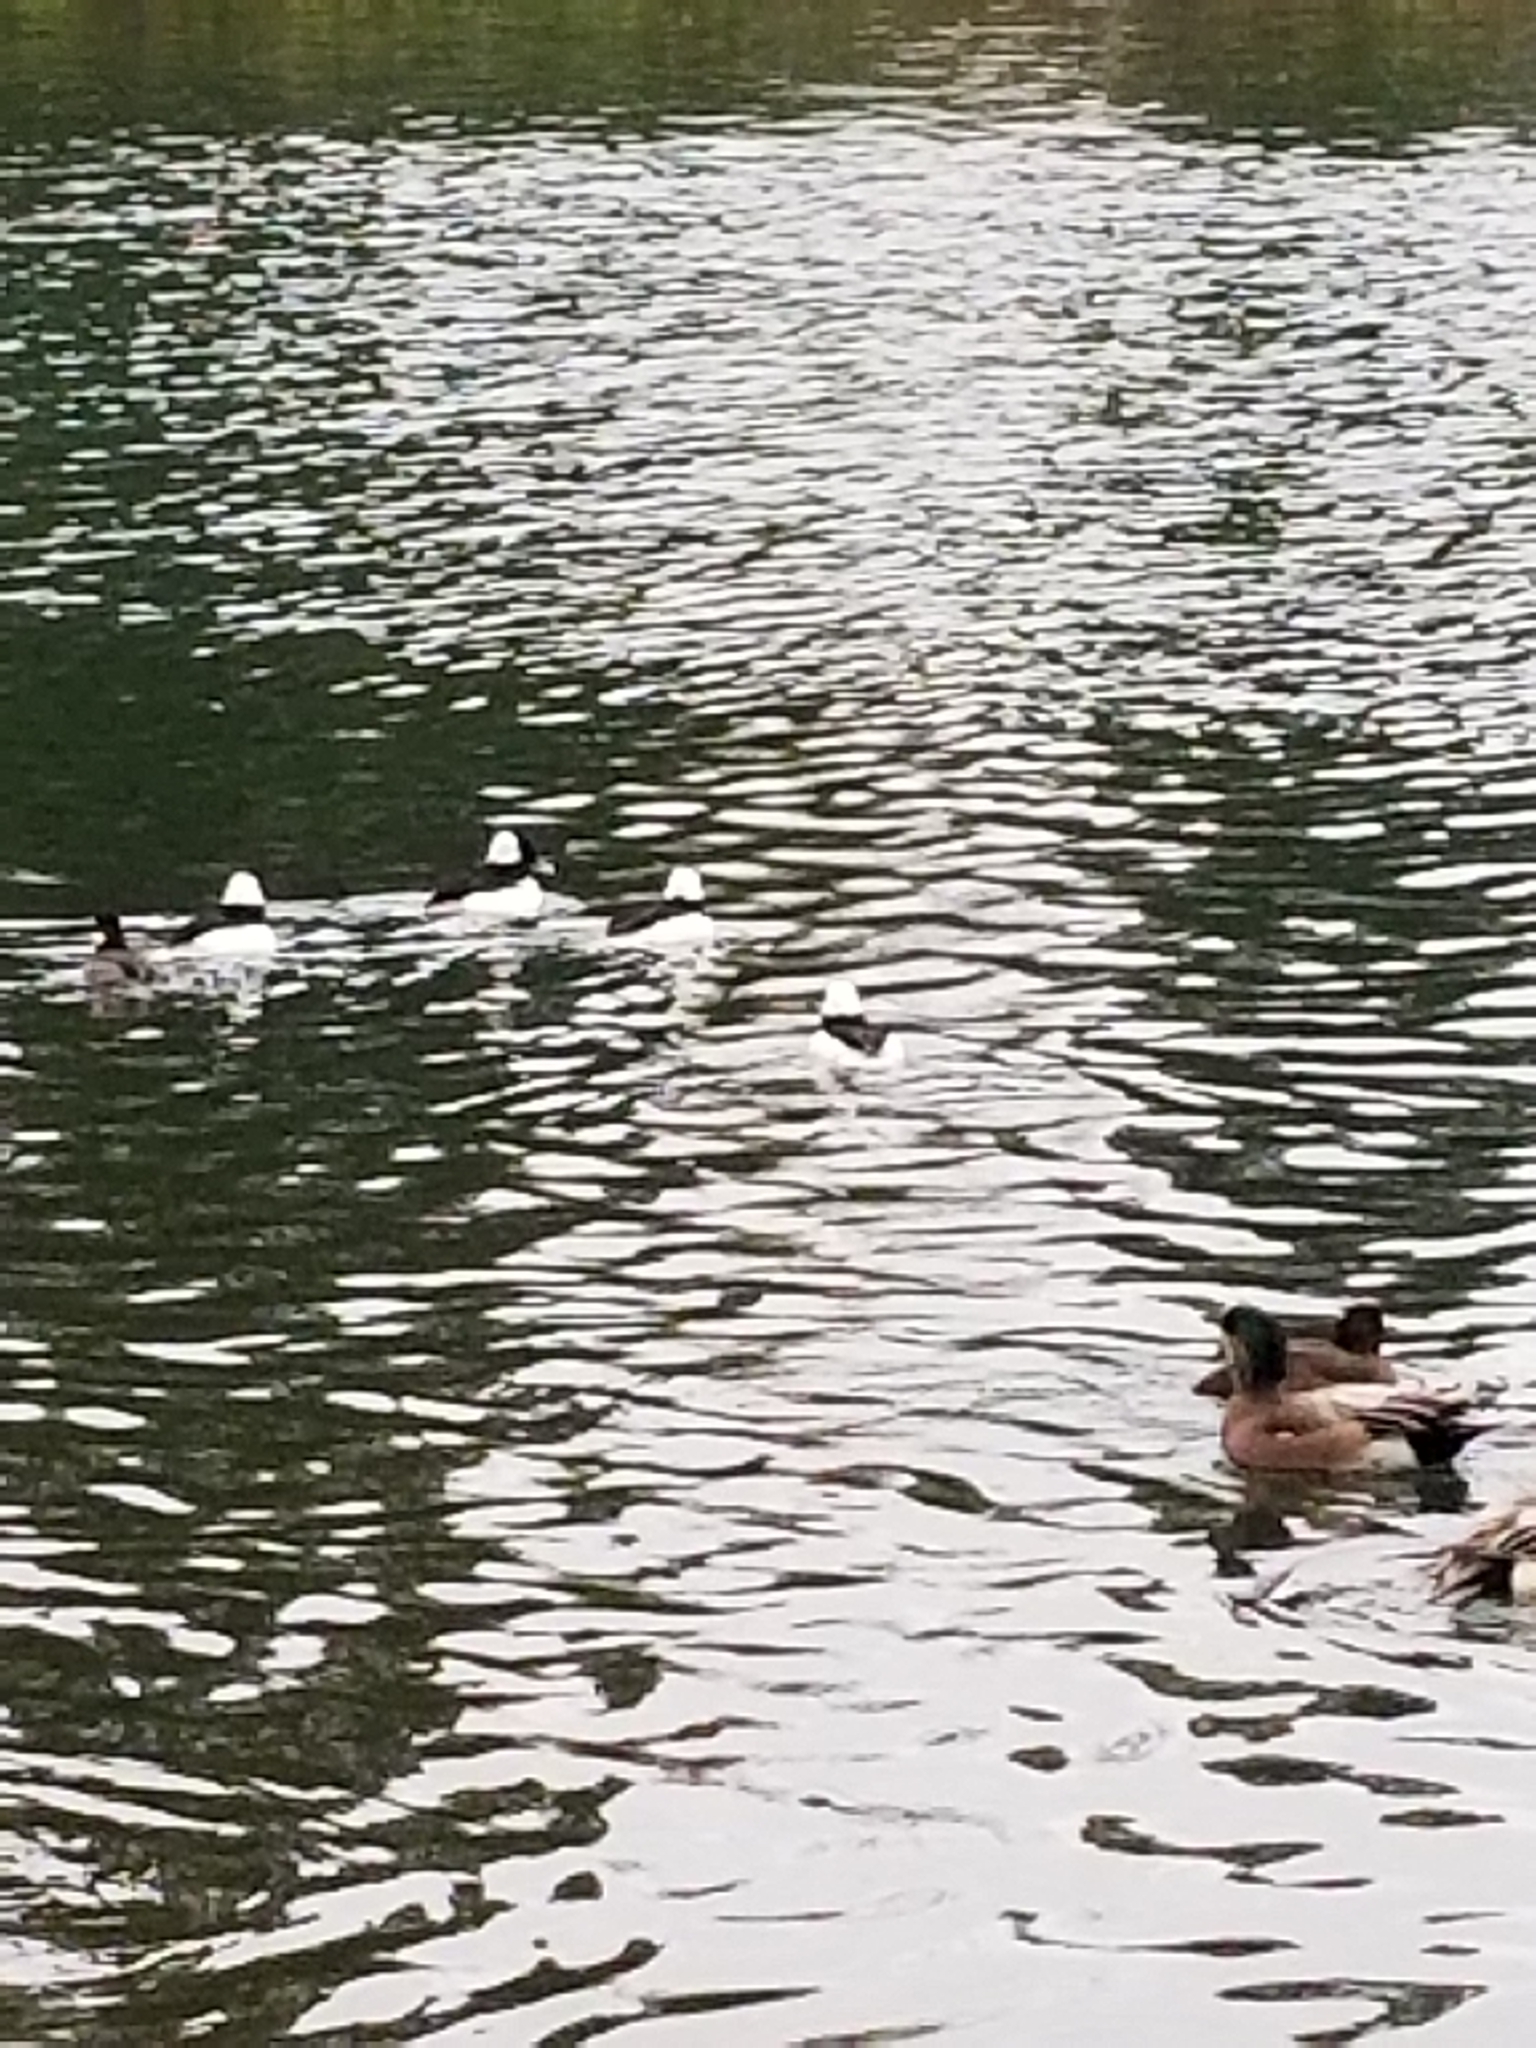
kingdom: Animalia
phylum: Chordata
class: Aves
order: Anseriformes
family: Anatidae
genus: Bucephala
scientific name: Bucephala albeola
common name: Bufflehead
